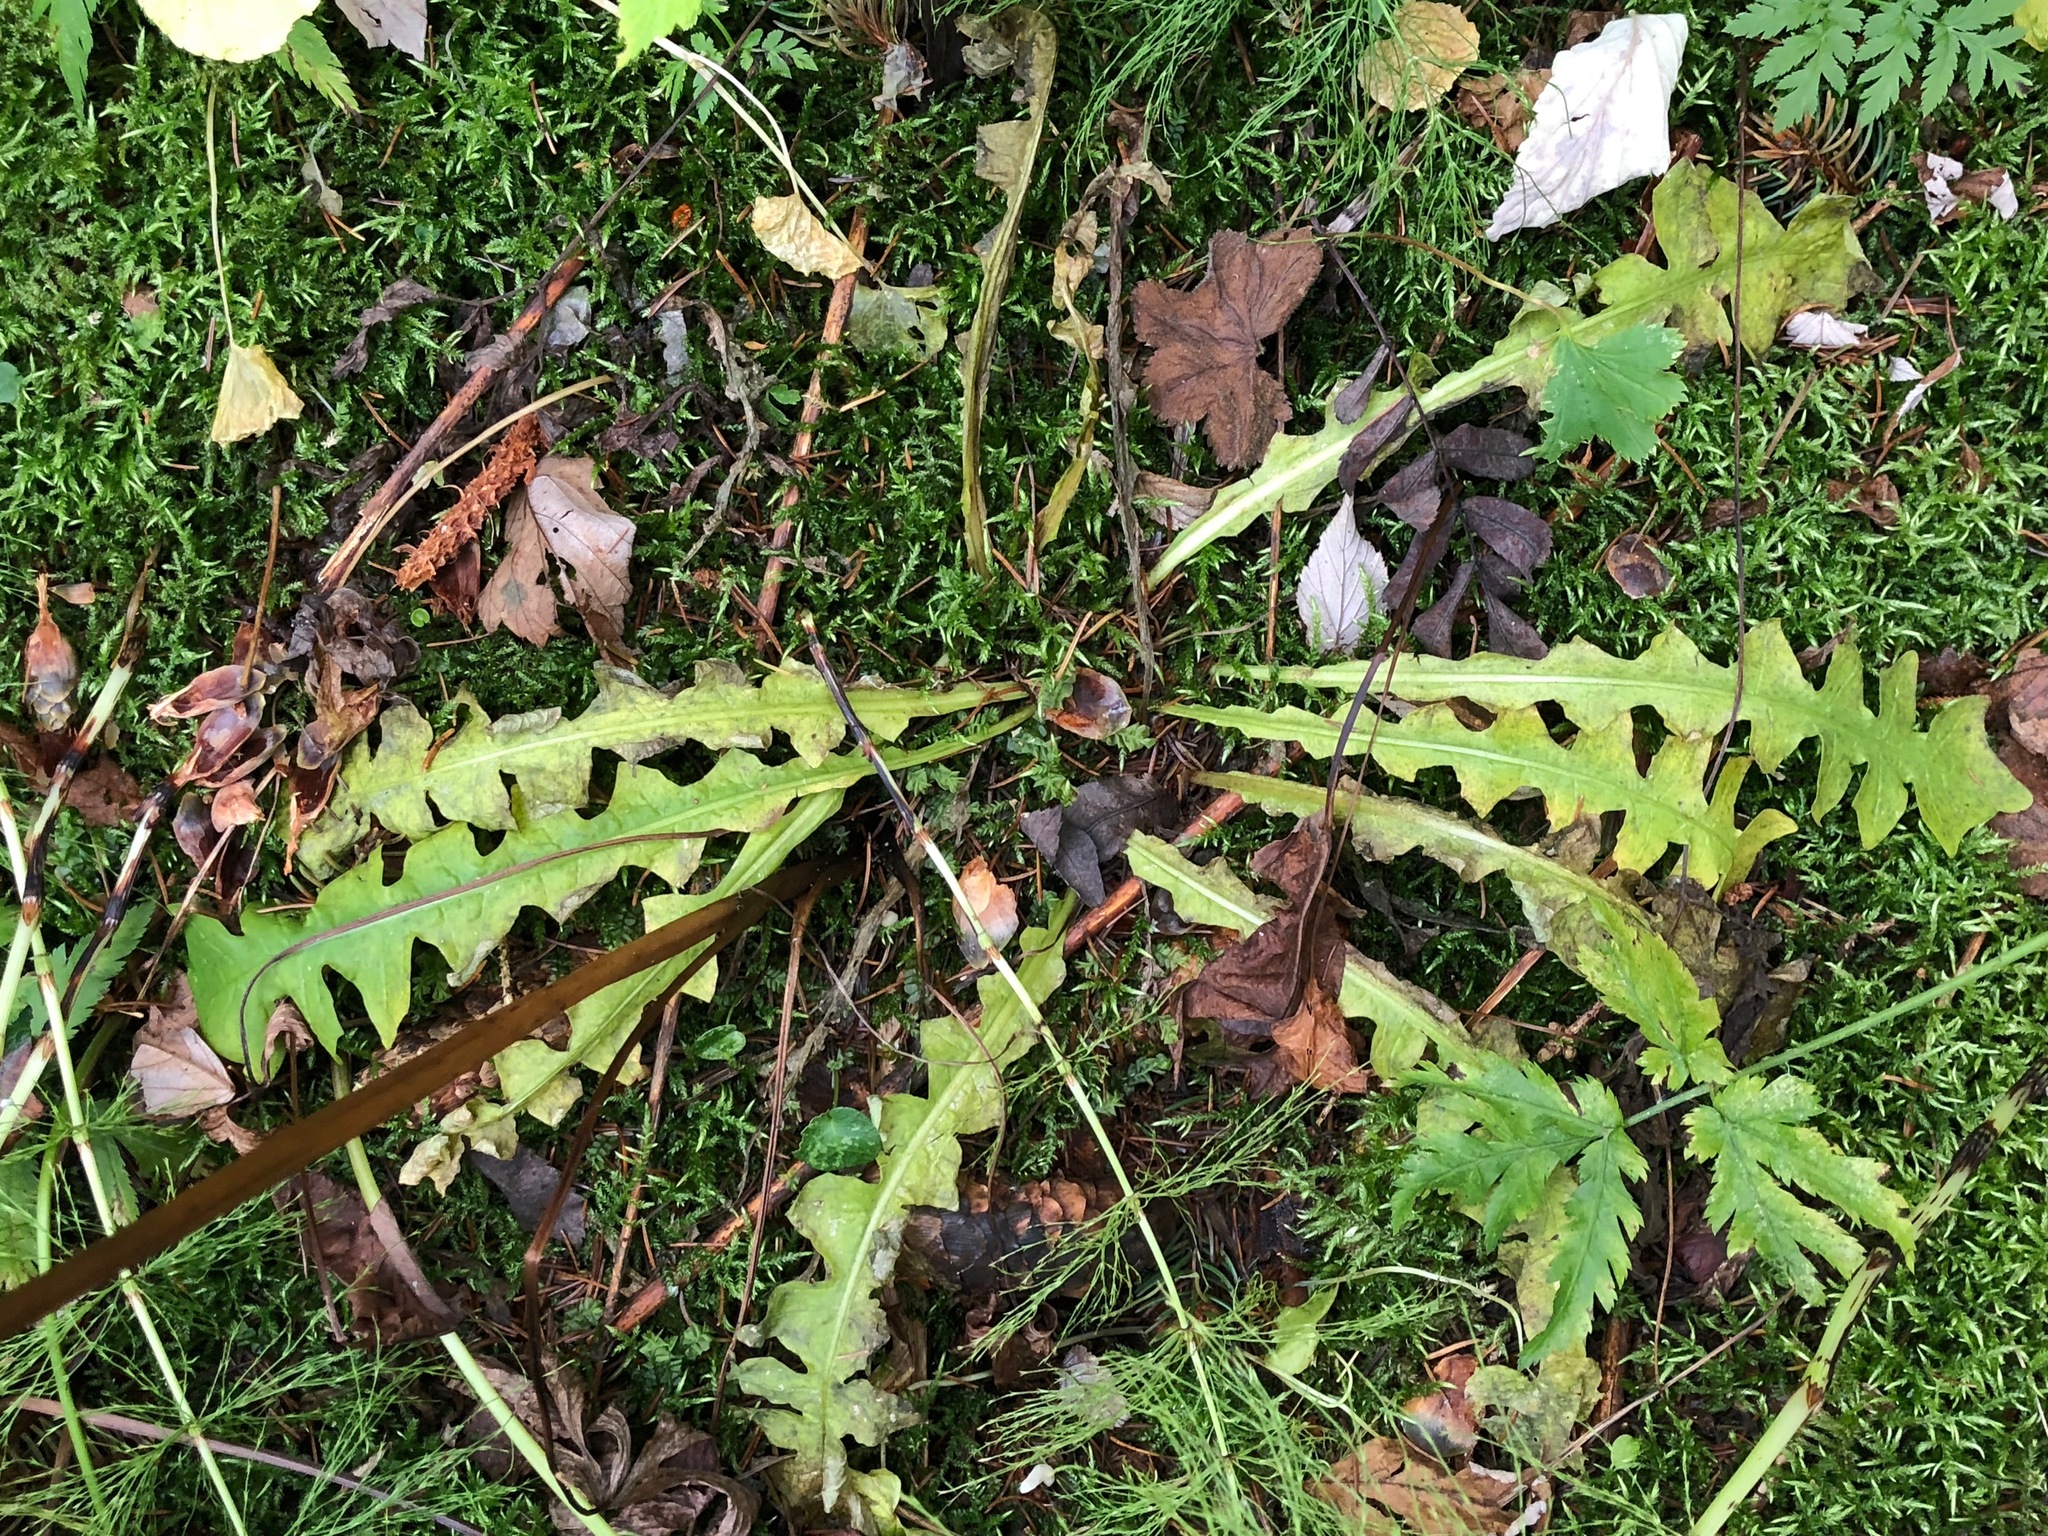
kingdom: Plantae
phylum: Tracheophyta
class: Magnoliopsida
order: Asterales
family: Asteraceae
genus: Aposeris
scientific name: Aposeris foetida
